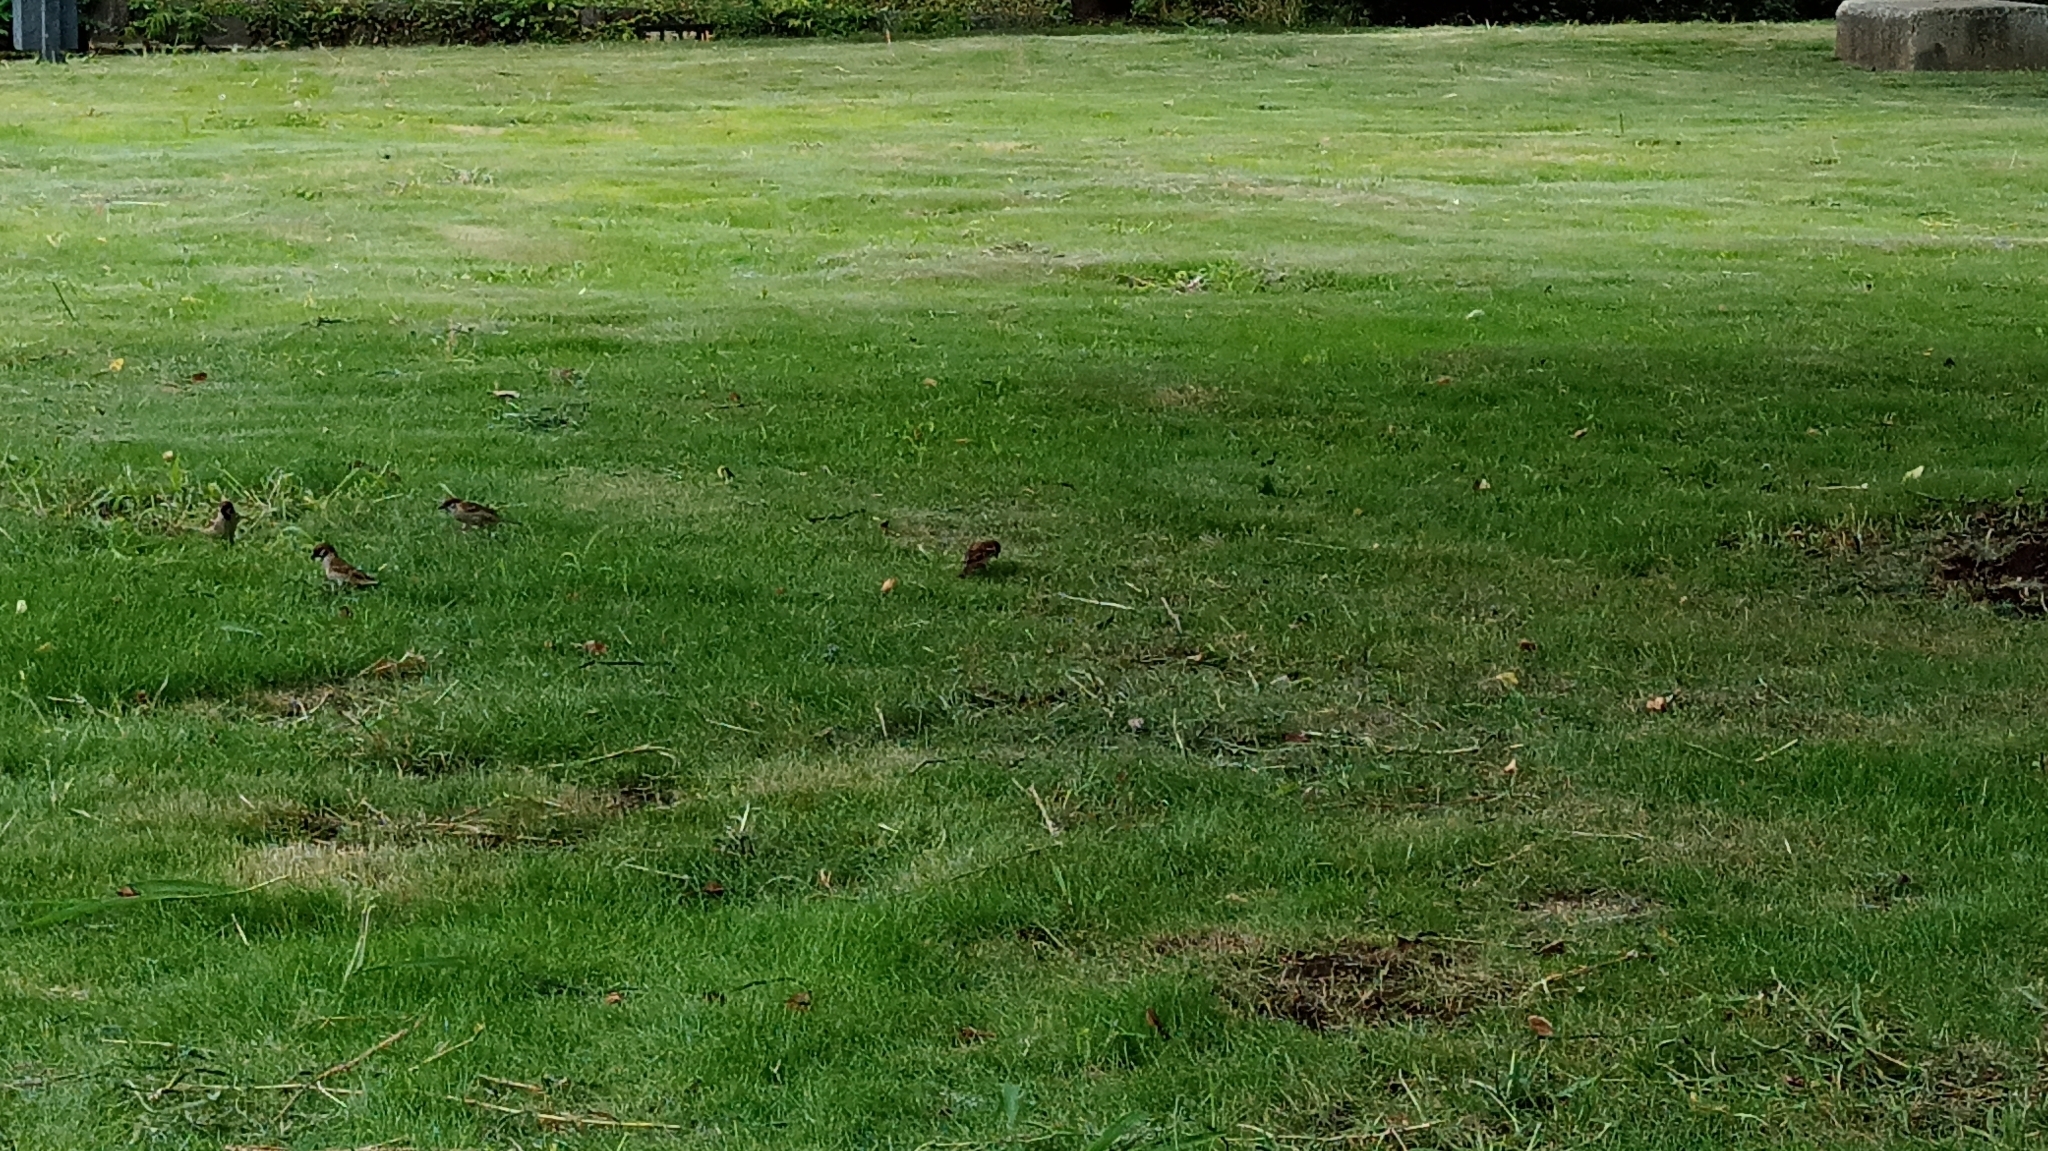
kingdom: Animalia
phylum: Chordata
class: Aves
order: Passeriformes
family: Passeridae
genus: Passer
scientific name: Passer montanus
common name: Eurasian tree sparrow
